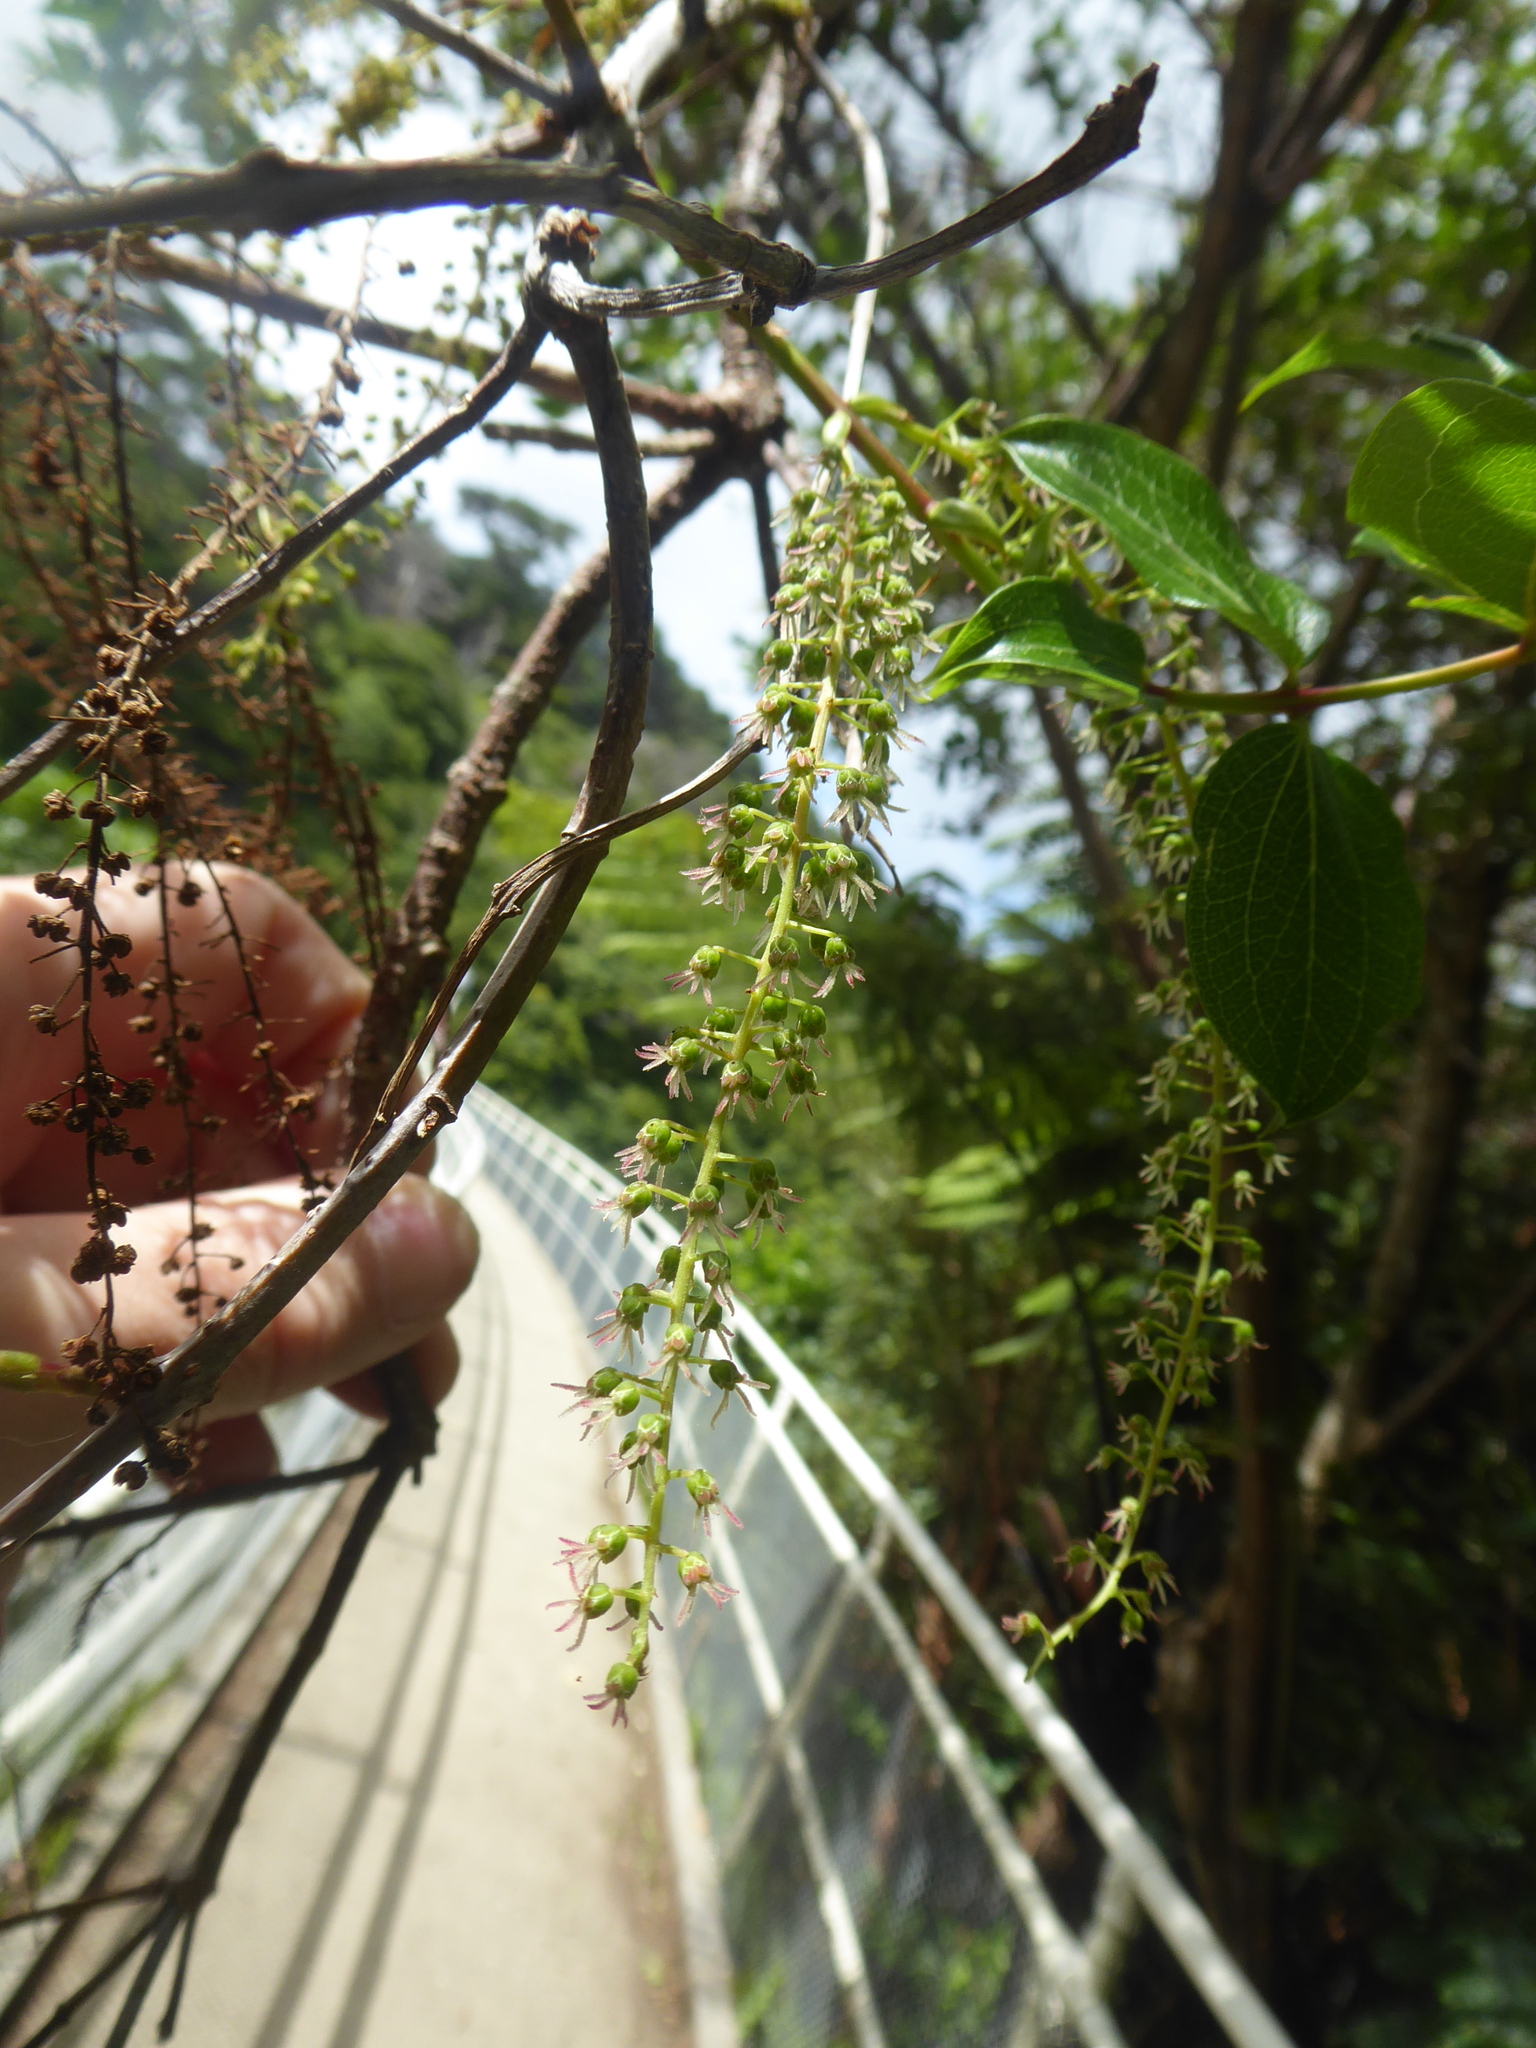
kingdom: Plantae
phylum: Tracheophyta
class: Magnoliopsida
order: Cucurbitales
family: Coriariaceae
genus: Coriaria
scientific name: Coriaria arborea
